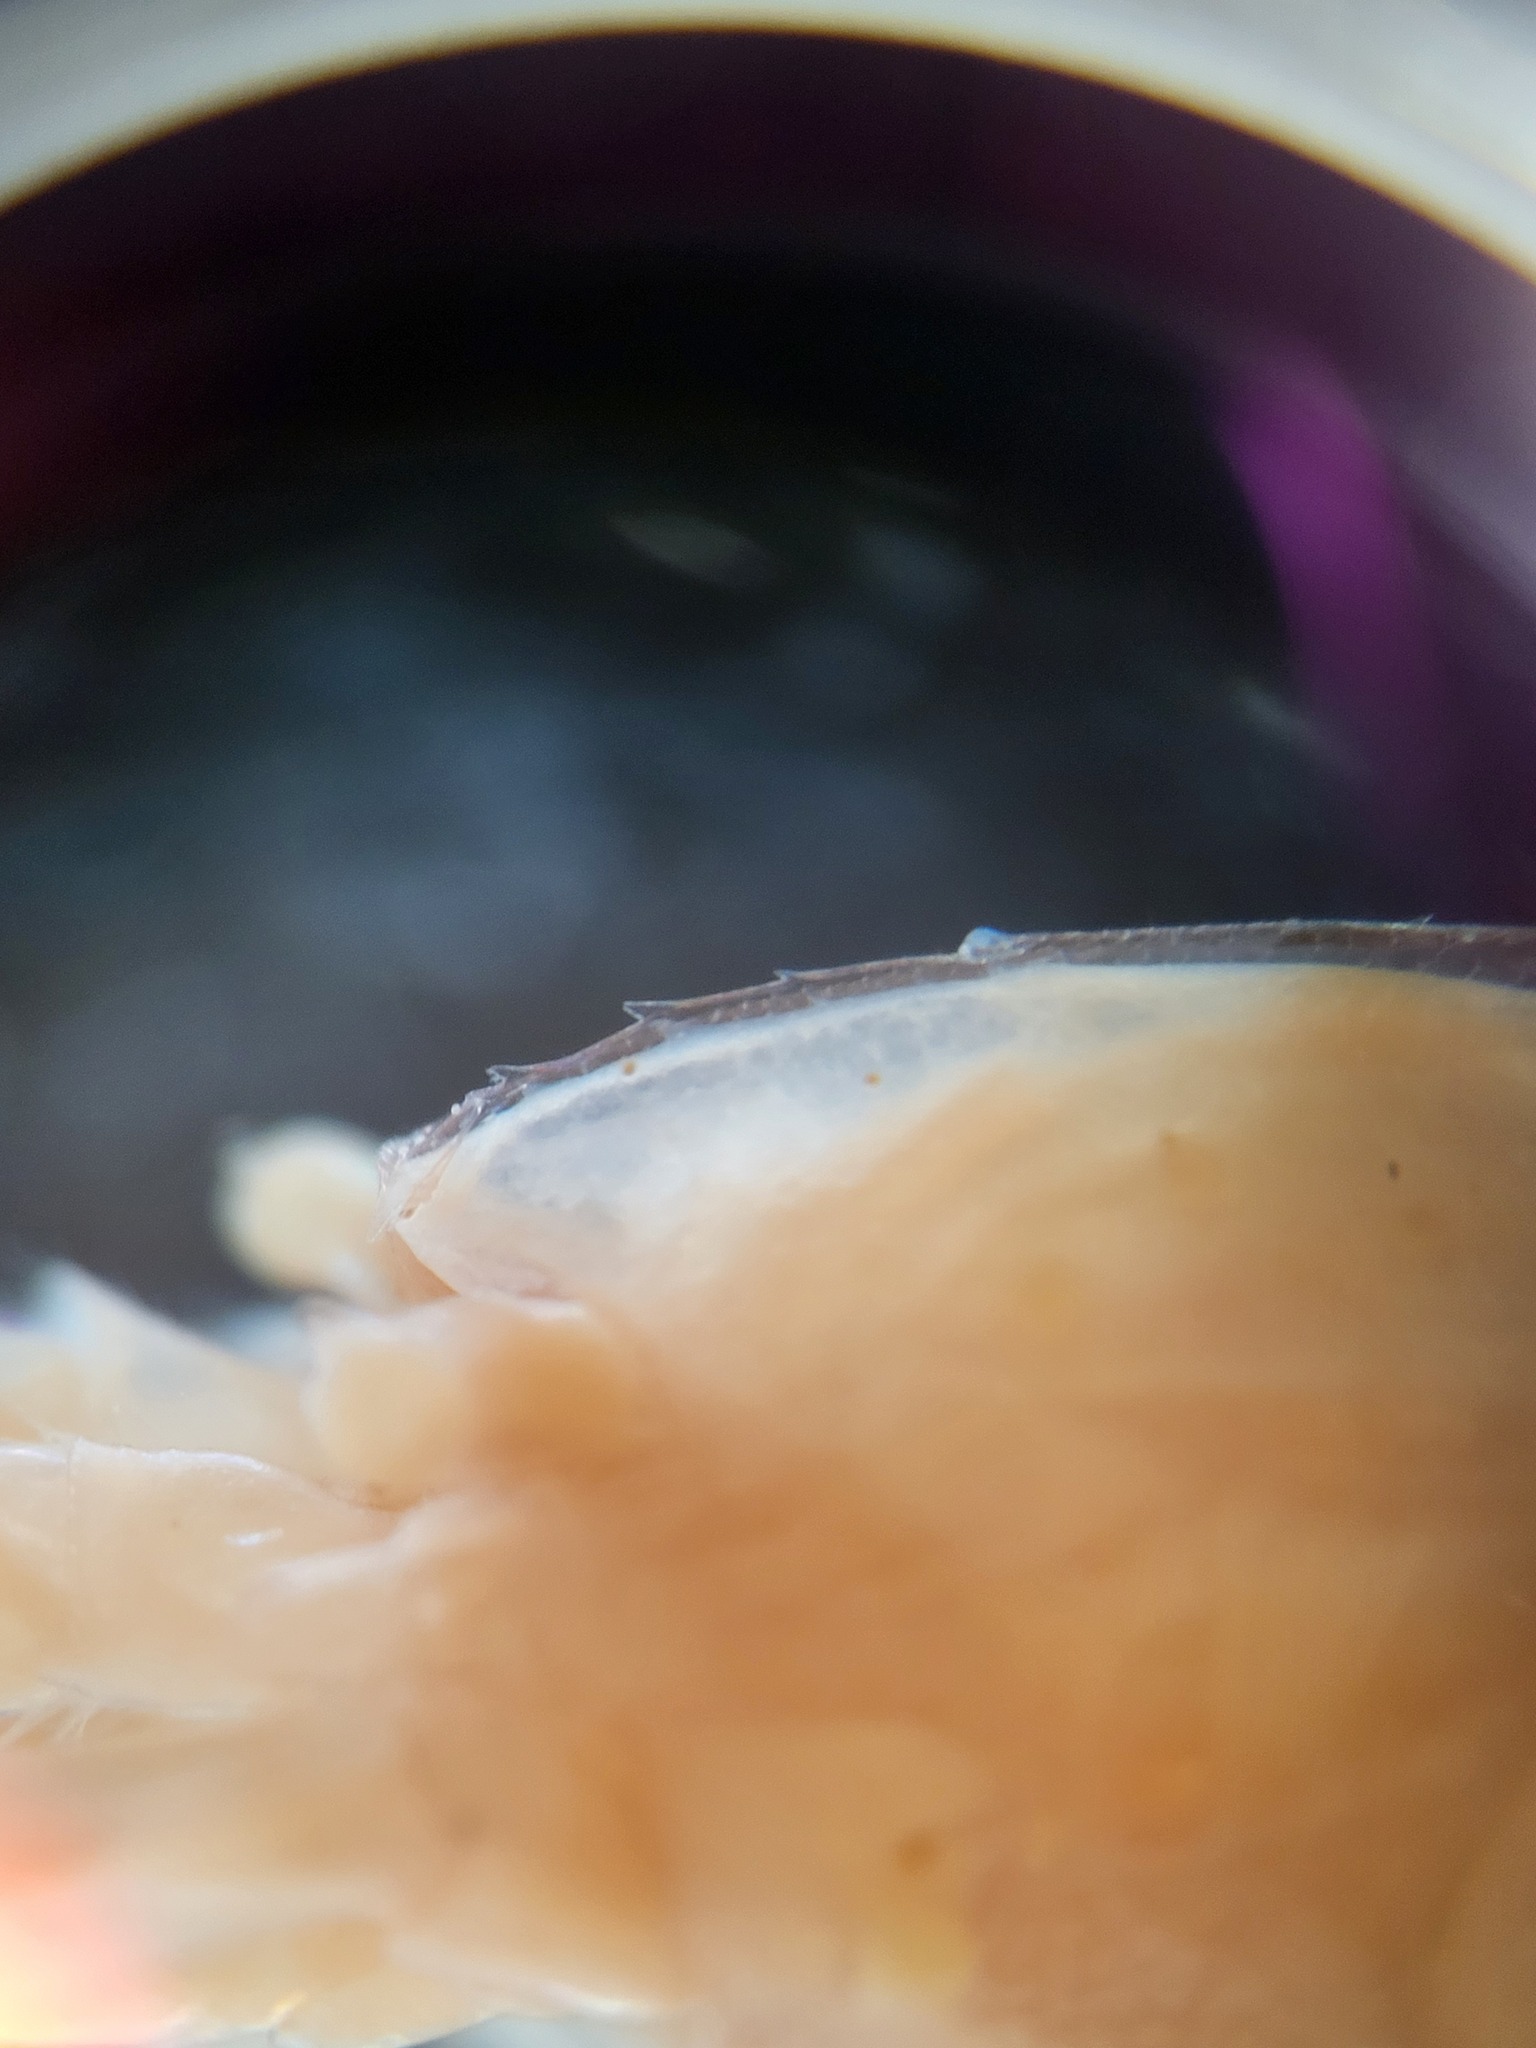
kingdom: Animalia
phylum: Arthropoda
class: Malacostraca
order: Decapoda
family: Acanthephyridae
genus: Hymenodora
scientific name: Hymenodora glacialis
